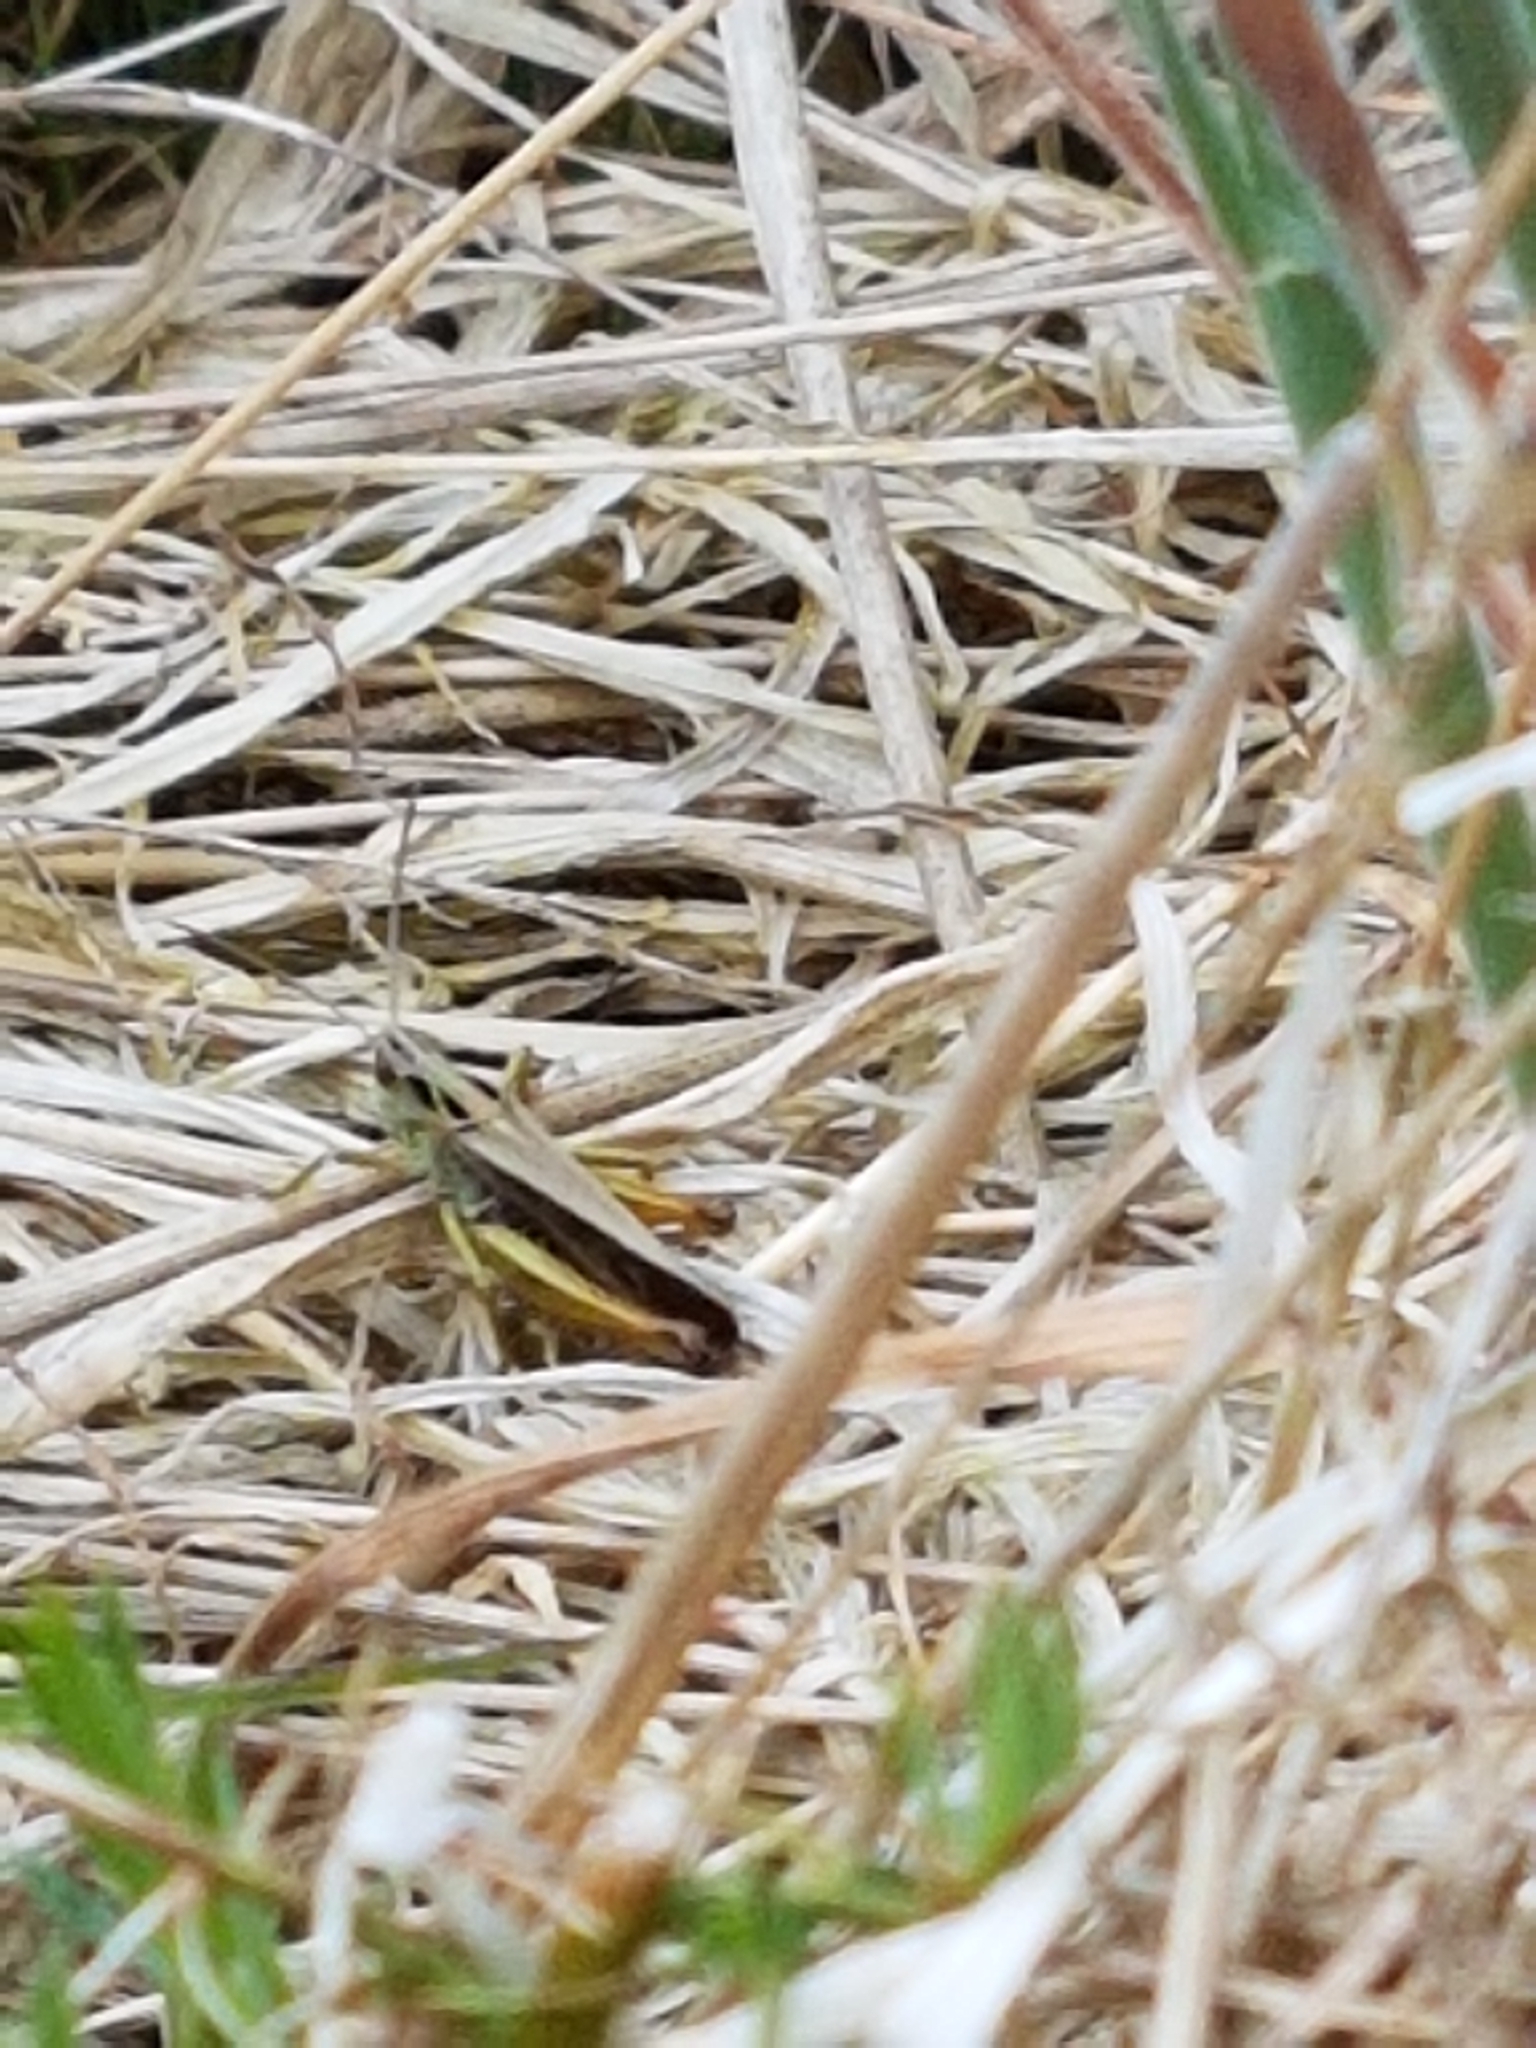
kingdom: Animalia
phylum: Arthropoda
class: Insecta
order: Orthoptera
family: Acrididae
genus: Omocestus
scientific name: Omocestus viridulus
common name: Common green grasshopper
